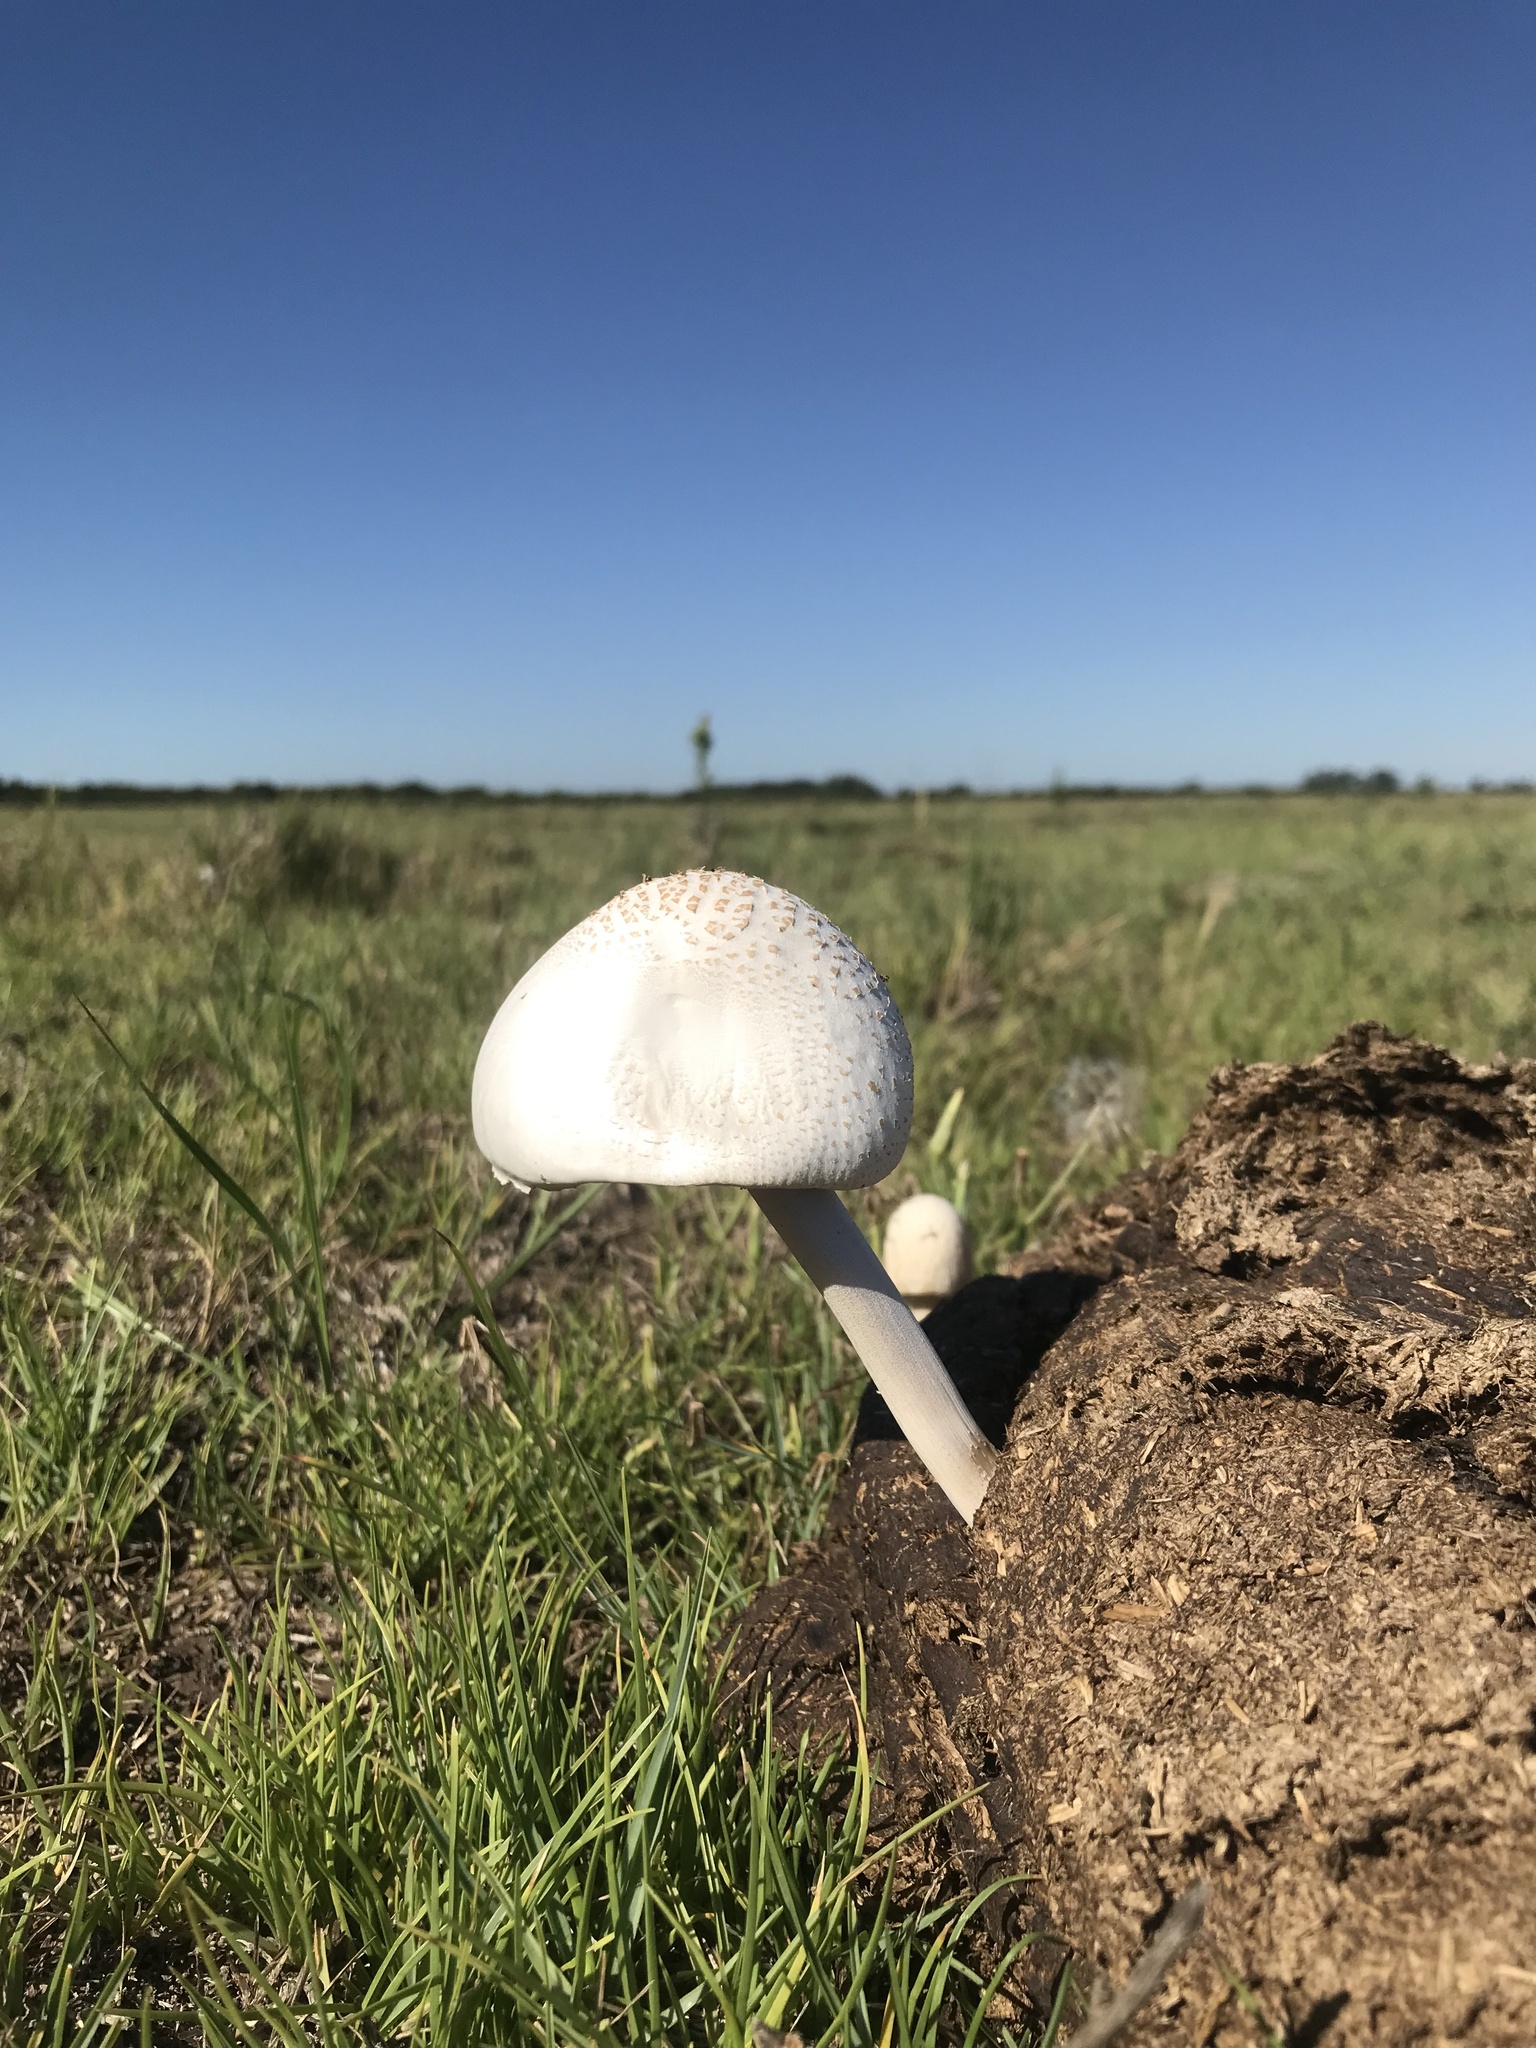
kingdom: Fungi
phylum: Basidiomycota
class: Agaricomycetes
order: Agaricales
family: Bolbitiaceae
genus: Panaeolus
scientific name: Panaeolus antillarum
